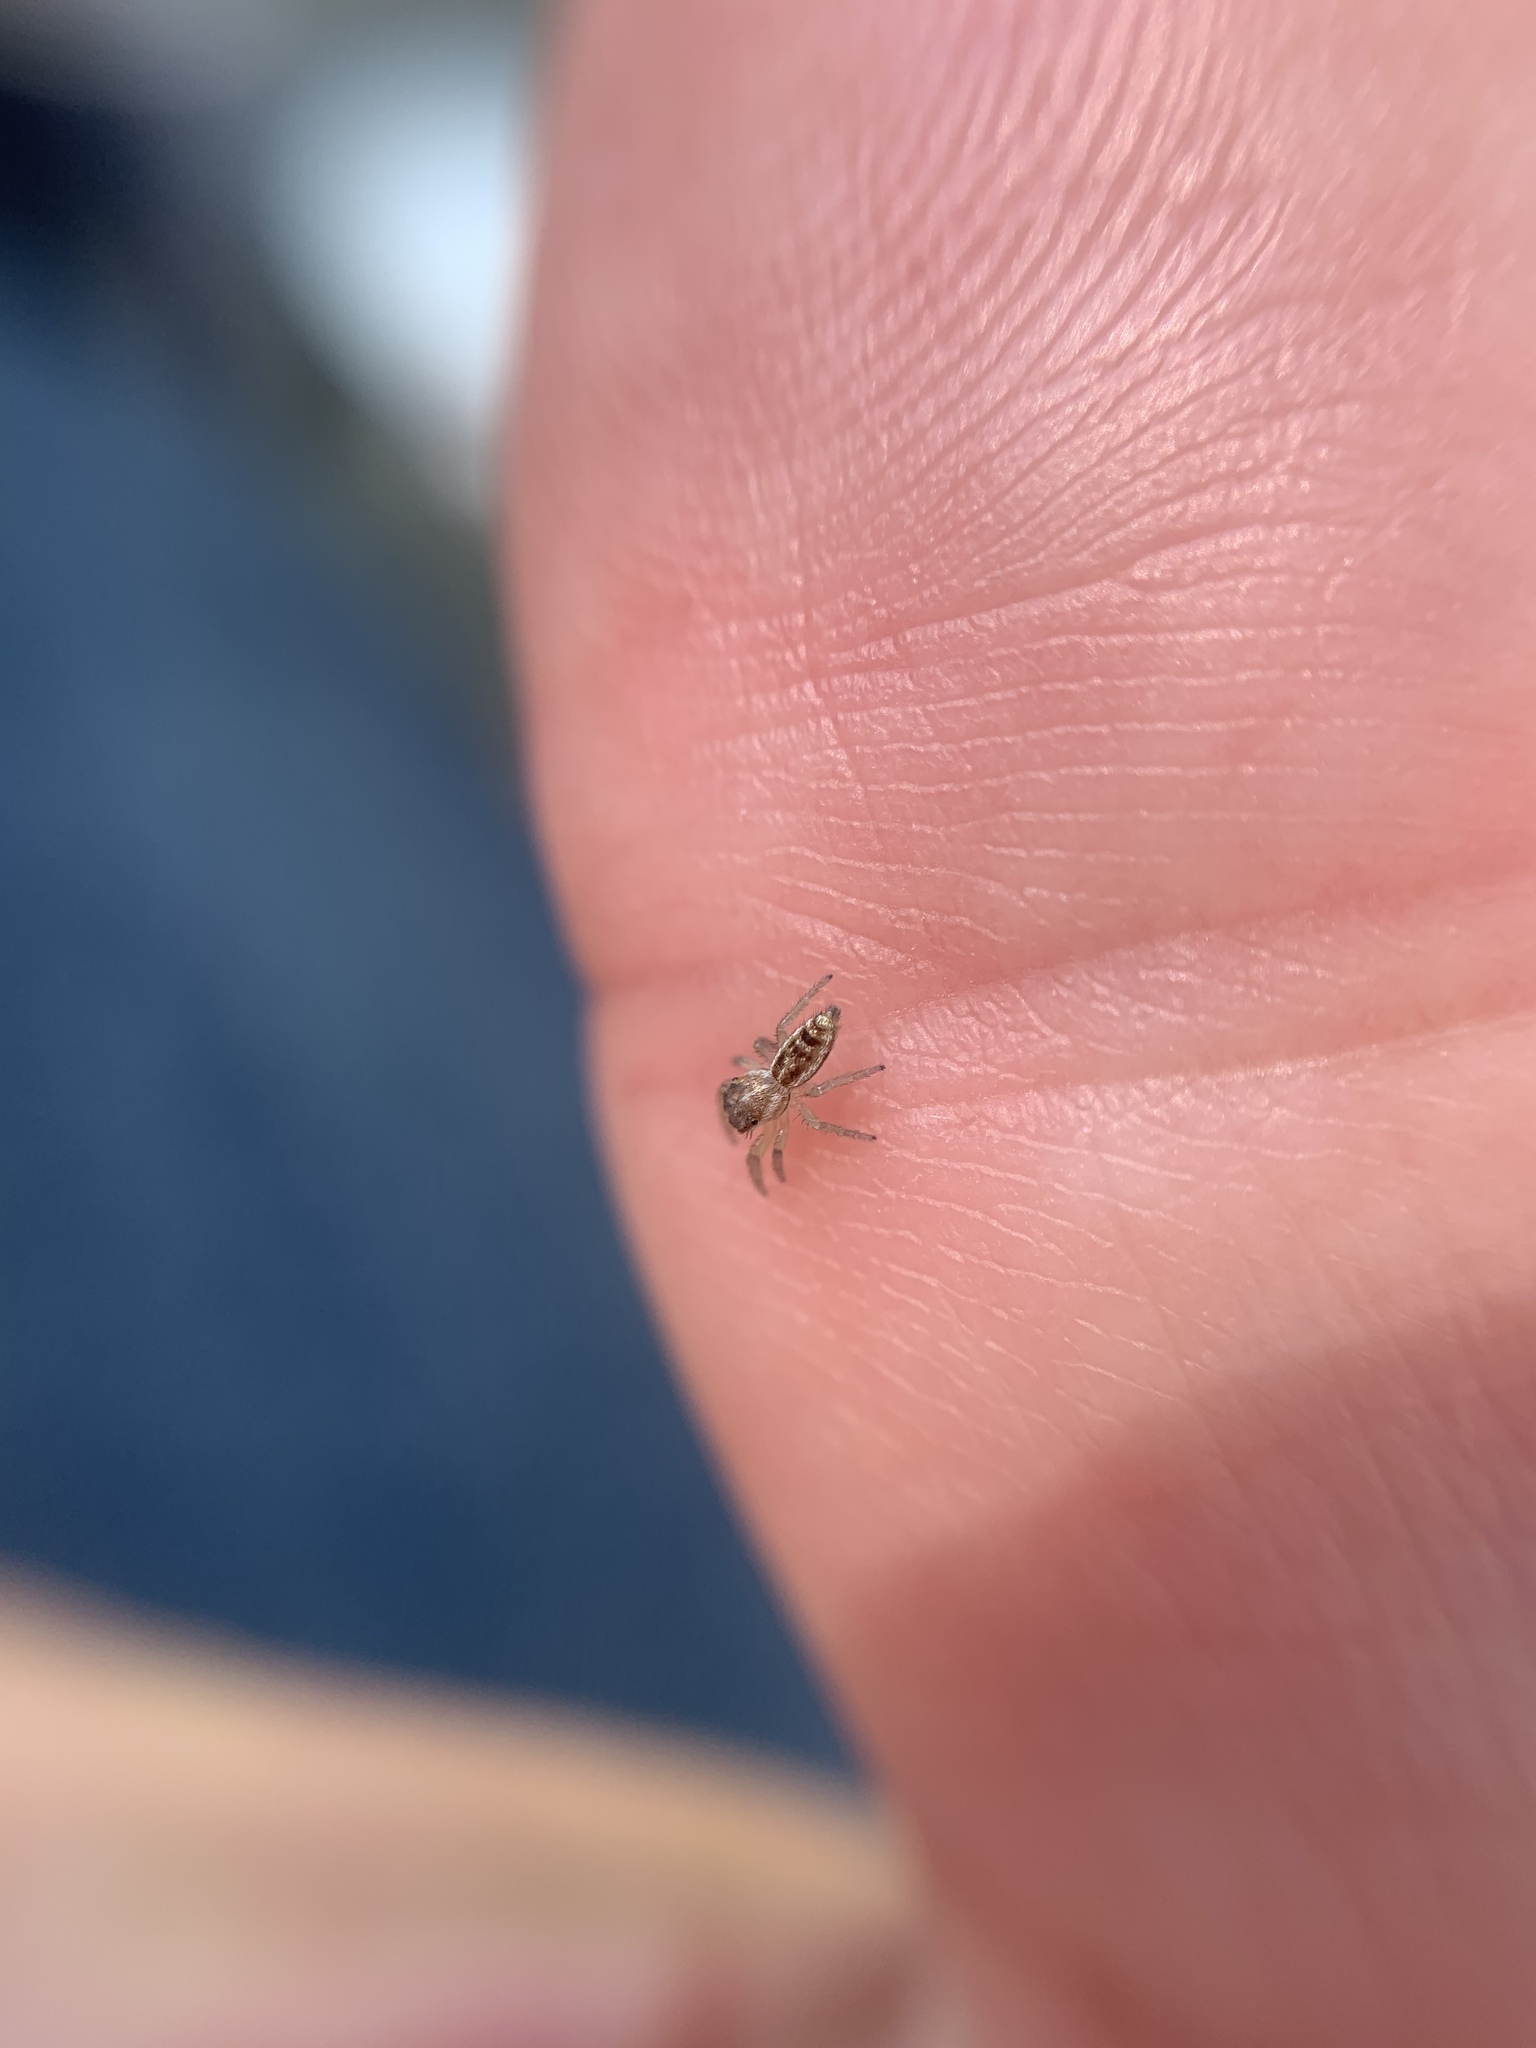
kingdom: Animalia
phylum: Arthropoda
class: Arachnida
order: Araneae
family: Salticidae
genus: Hentzia
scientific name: Hentzia mitrata
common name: White-jawed jumping spider
